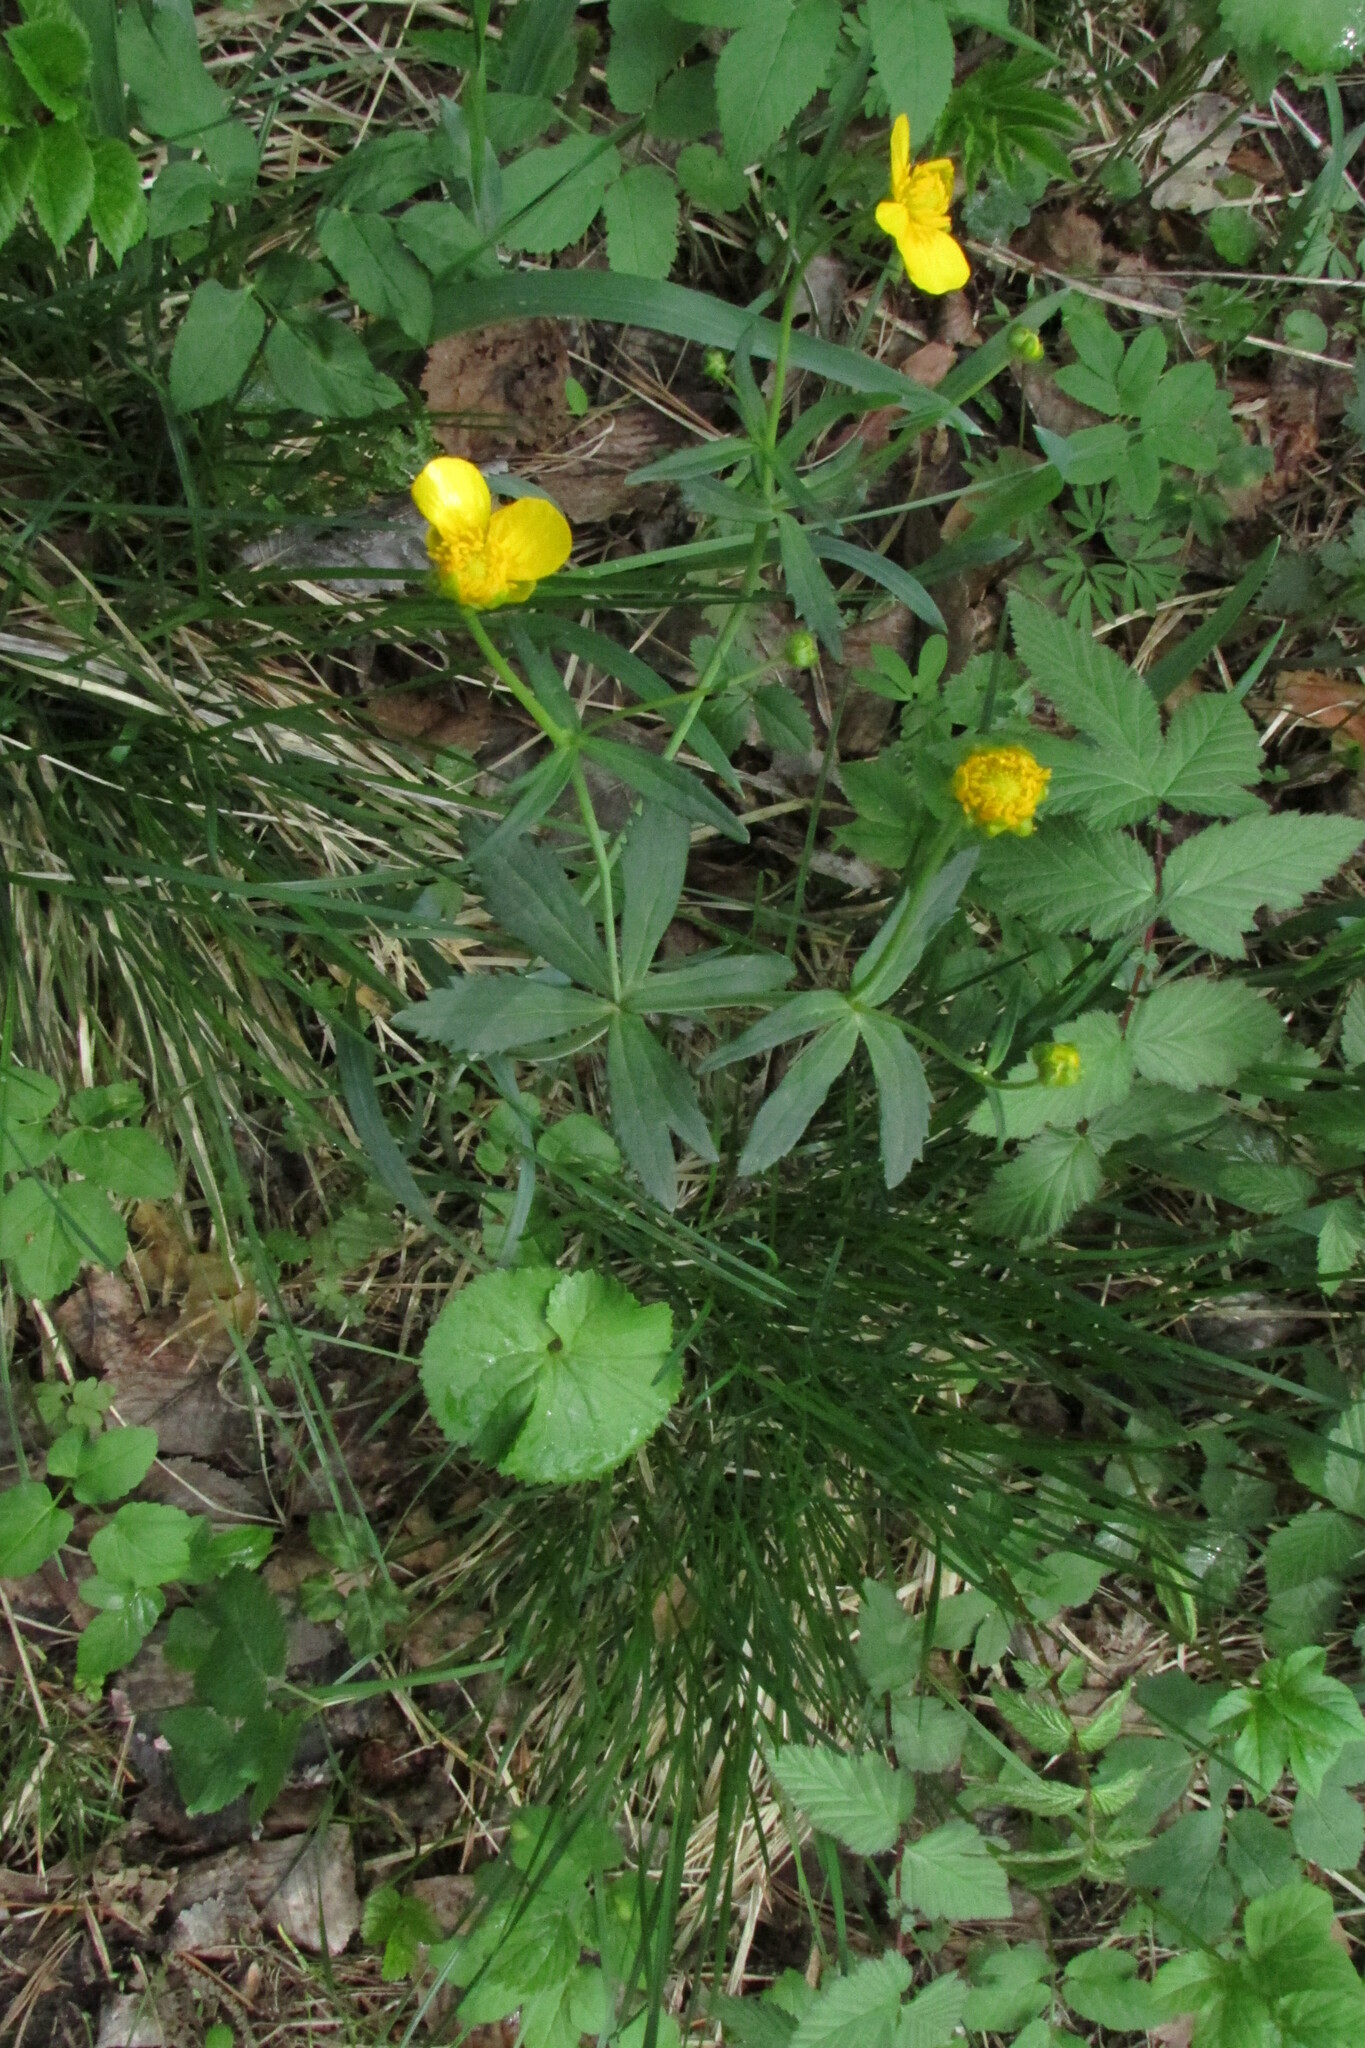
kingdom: Plantae
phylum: Tracheophyta
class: Magnoliopsida
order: Ranunculales
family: Ranunculaceae
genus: Ranunculus
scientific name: Ranunculus cassubicus
